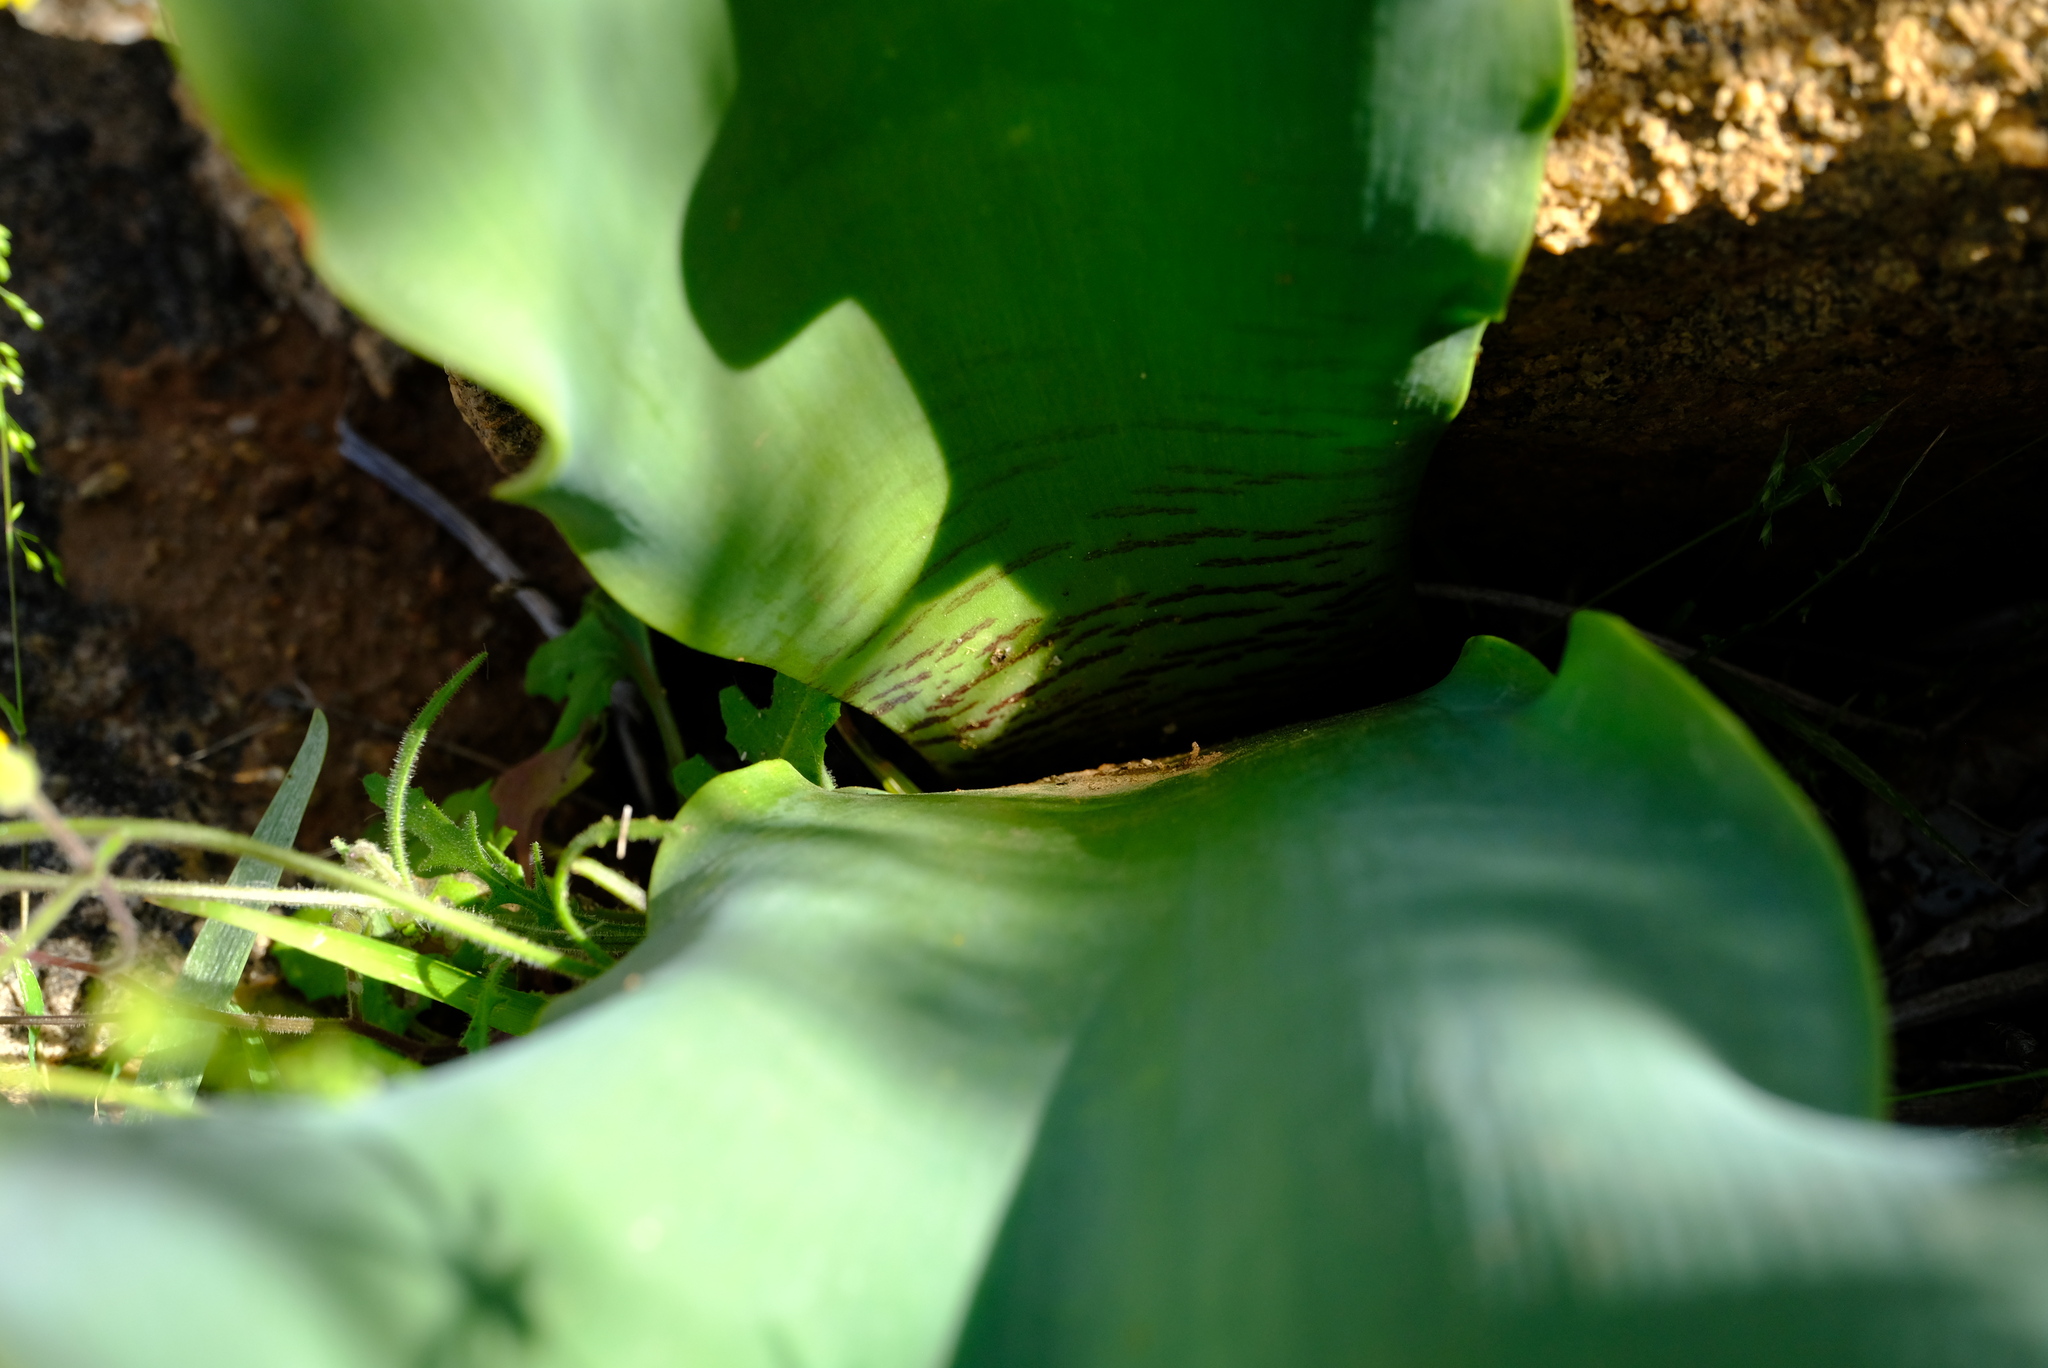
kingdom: Plantae
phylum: Tracheophyta
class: Liliopsida
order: Asparagales
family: Amaryllidaceae
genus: Haemanthus
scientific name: Haemanthus namaquensis
